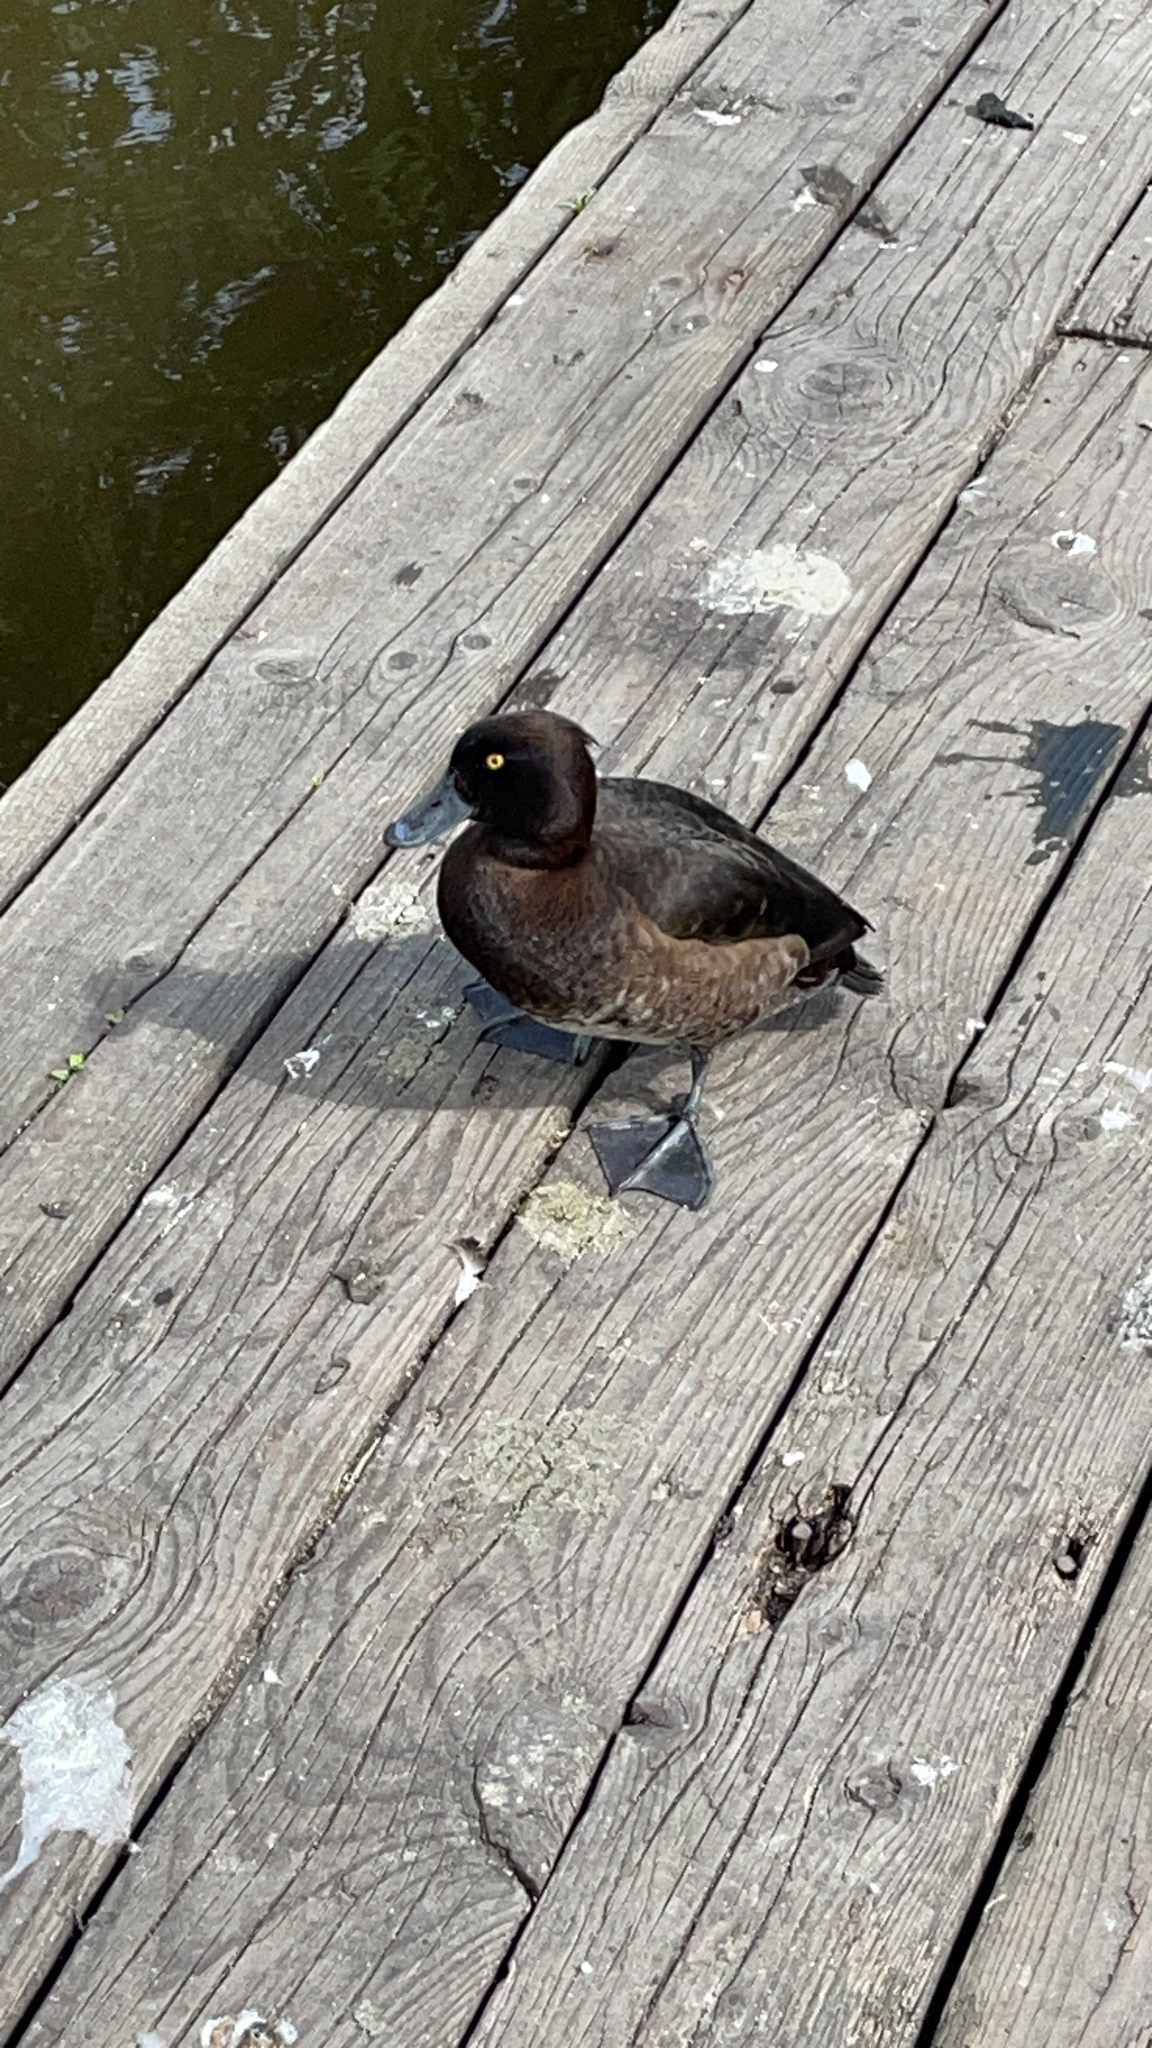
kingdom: Animalia
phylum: Chordata
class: Aves
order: Anseriformes
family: Anatidae
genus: Aythya
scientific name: Aythya fuligula
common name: Tufted duck
